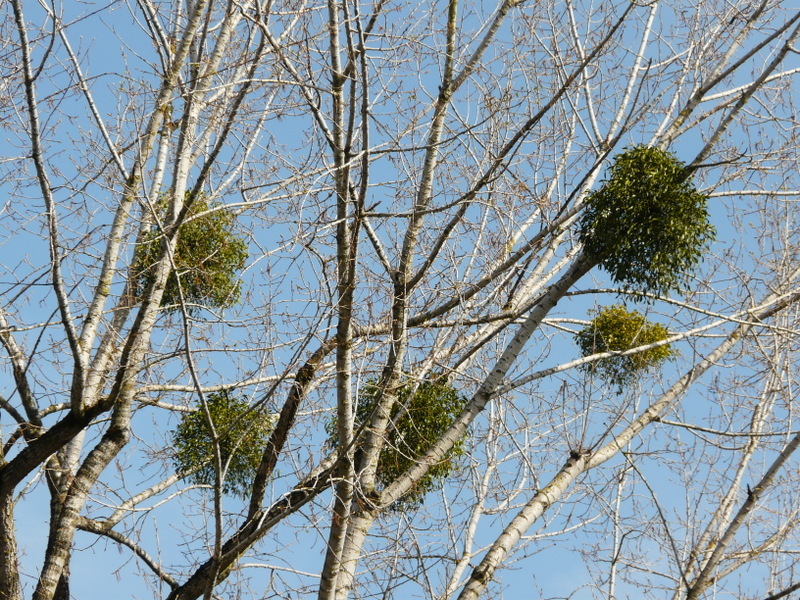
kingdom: Plantae
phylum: Tracheophyta
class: Magnoliopsida
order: Santalales
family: Viscaceae
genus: Viscum
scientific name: Viscum album
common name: Mistletoe
